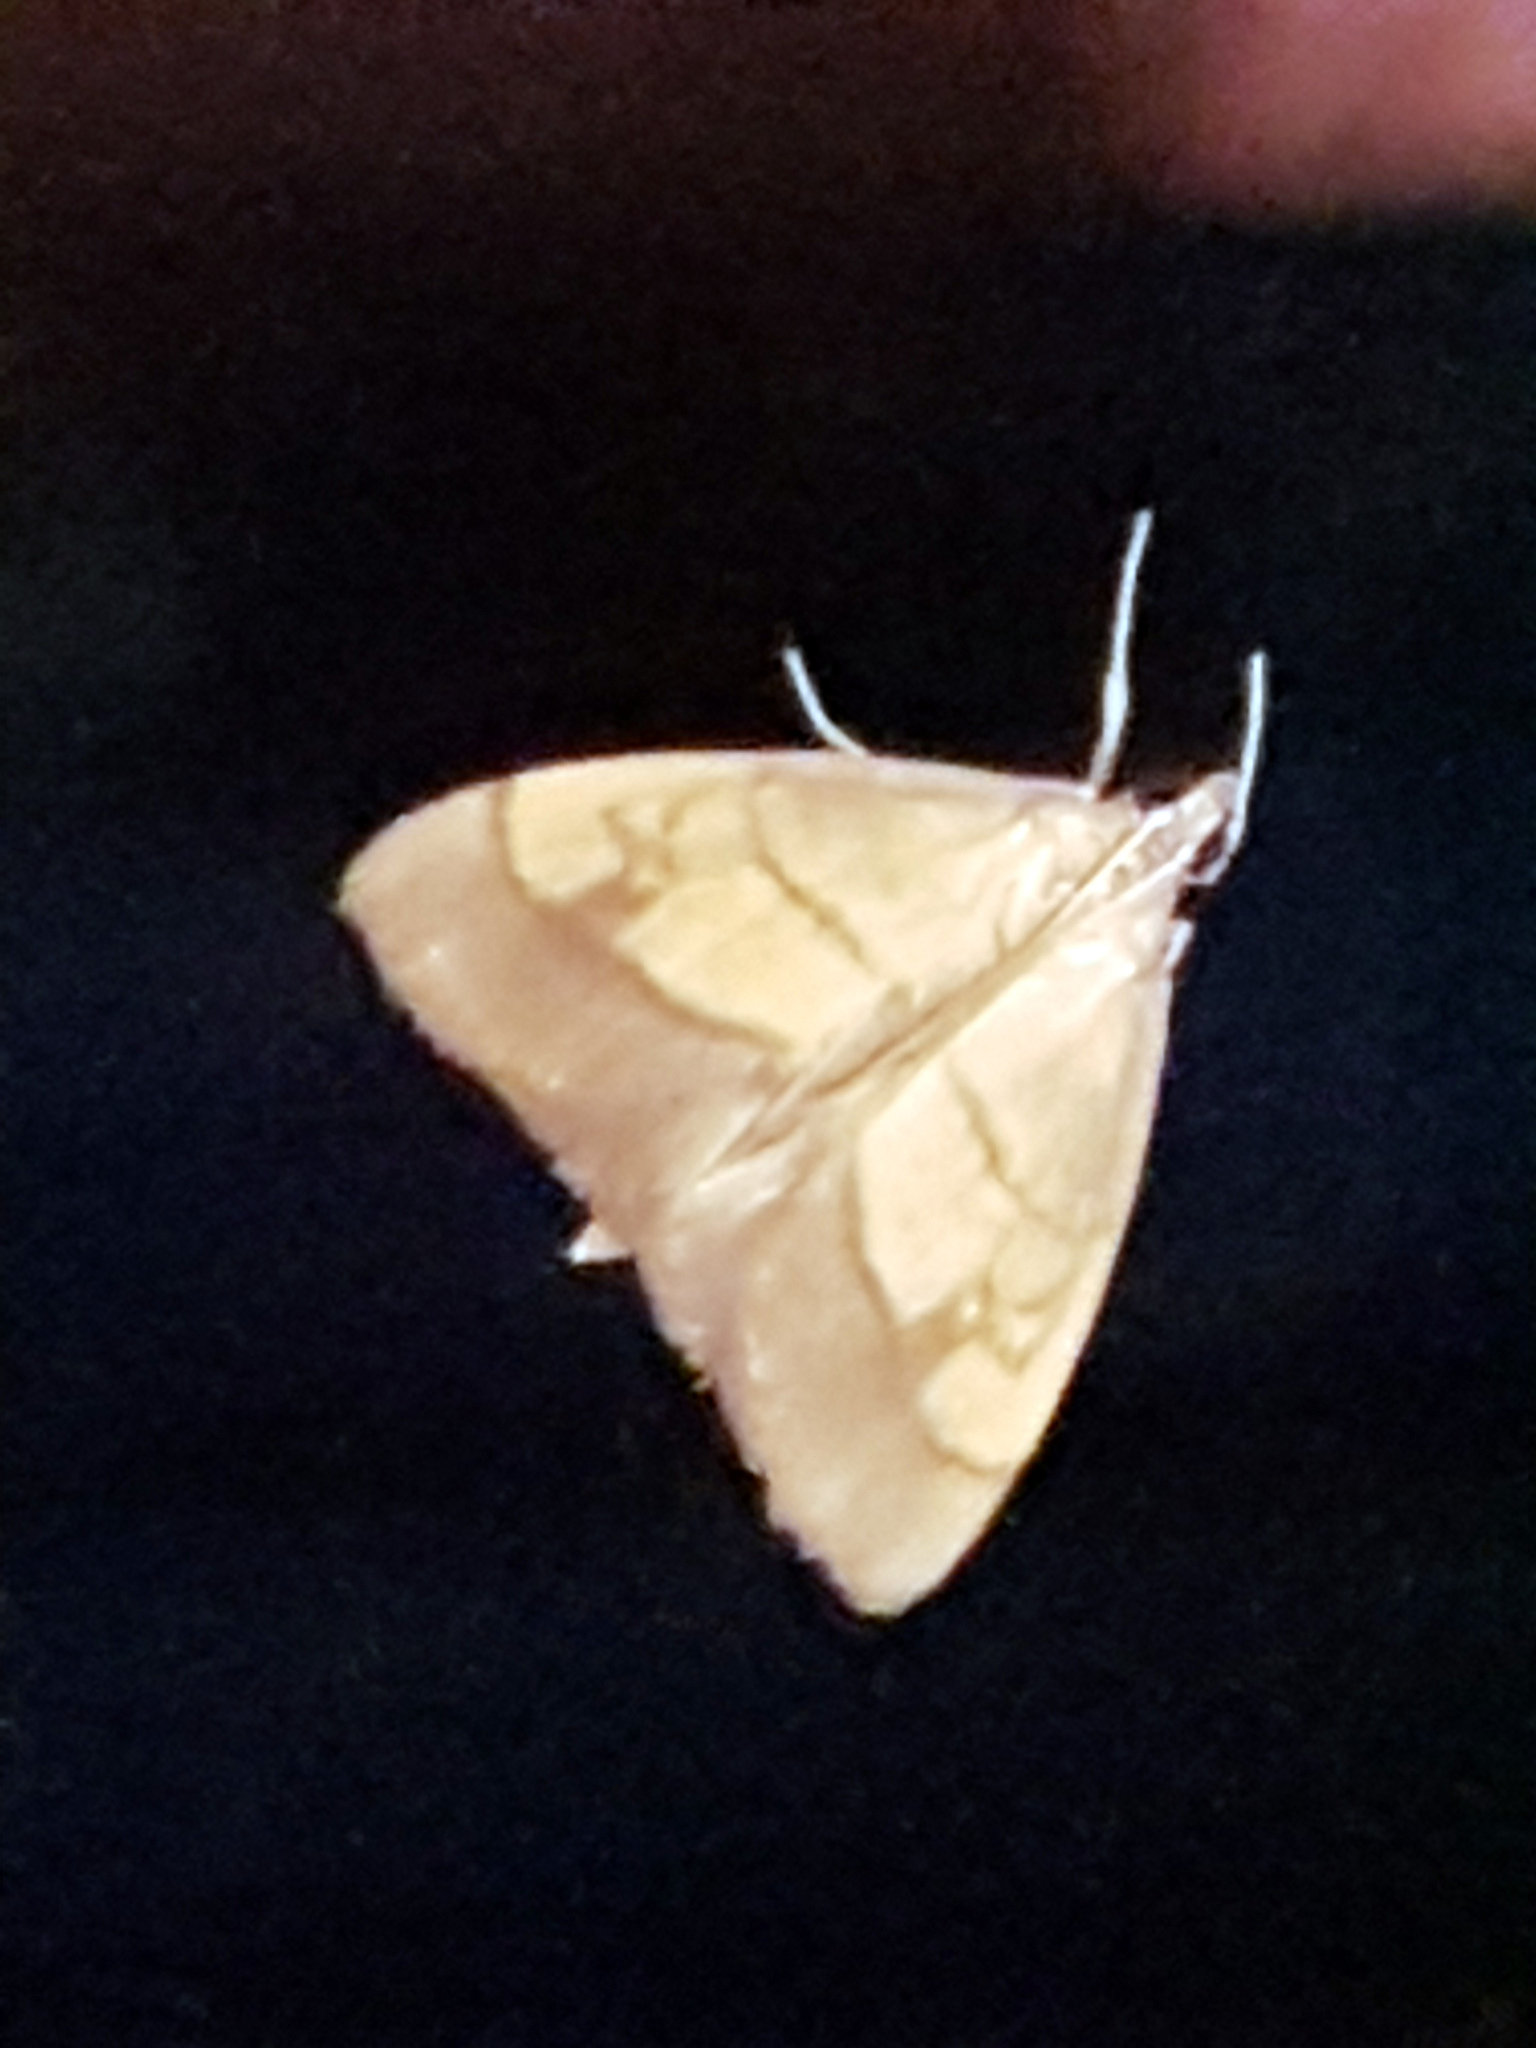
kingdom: Animalia
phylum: Arthropoda
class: Insecta
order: Lepidoptera
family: Crambidae
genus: Evergestis
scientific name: Evergestis limbata
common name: Dark bordered pearl
